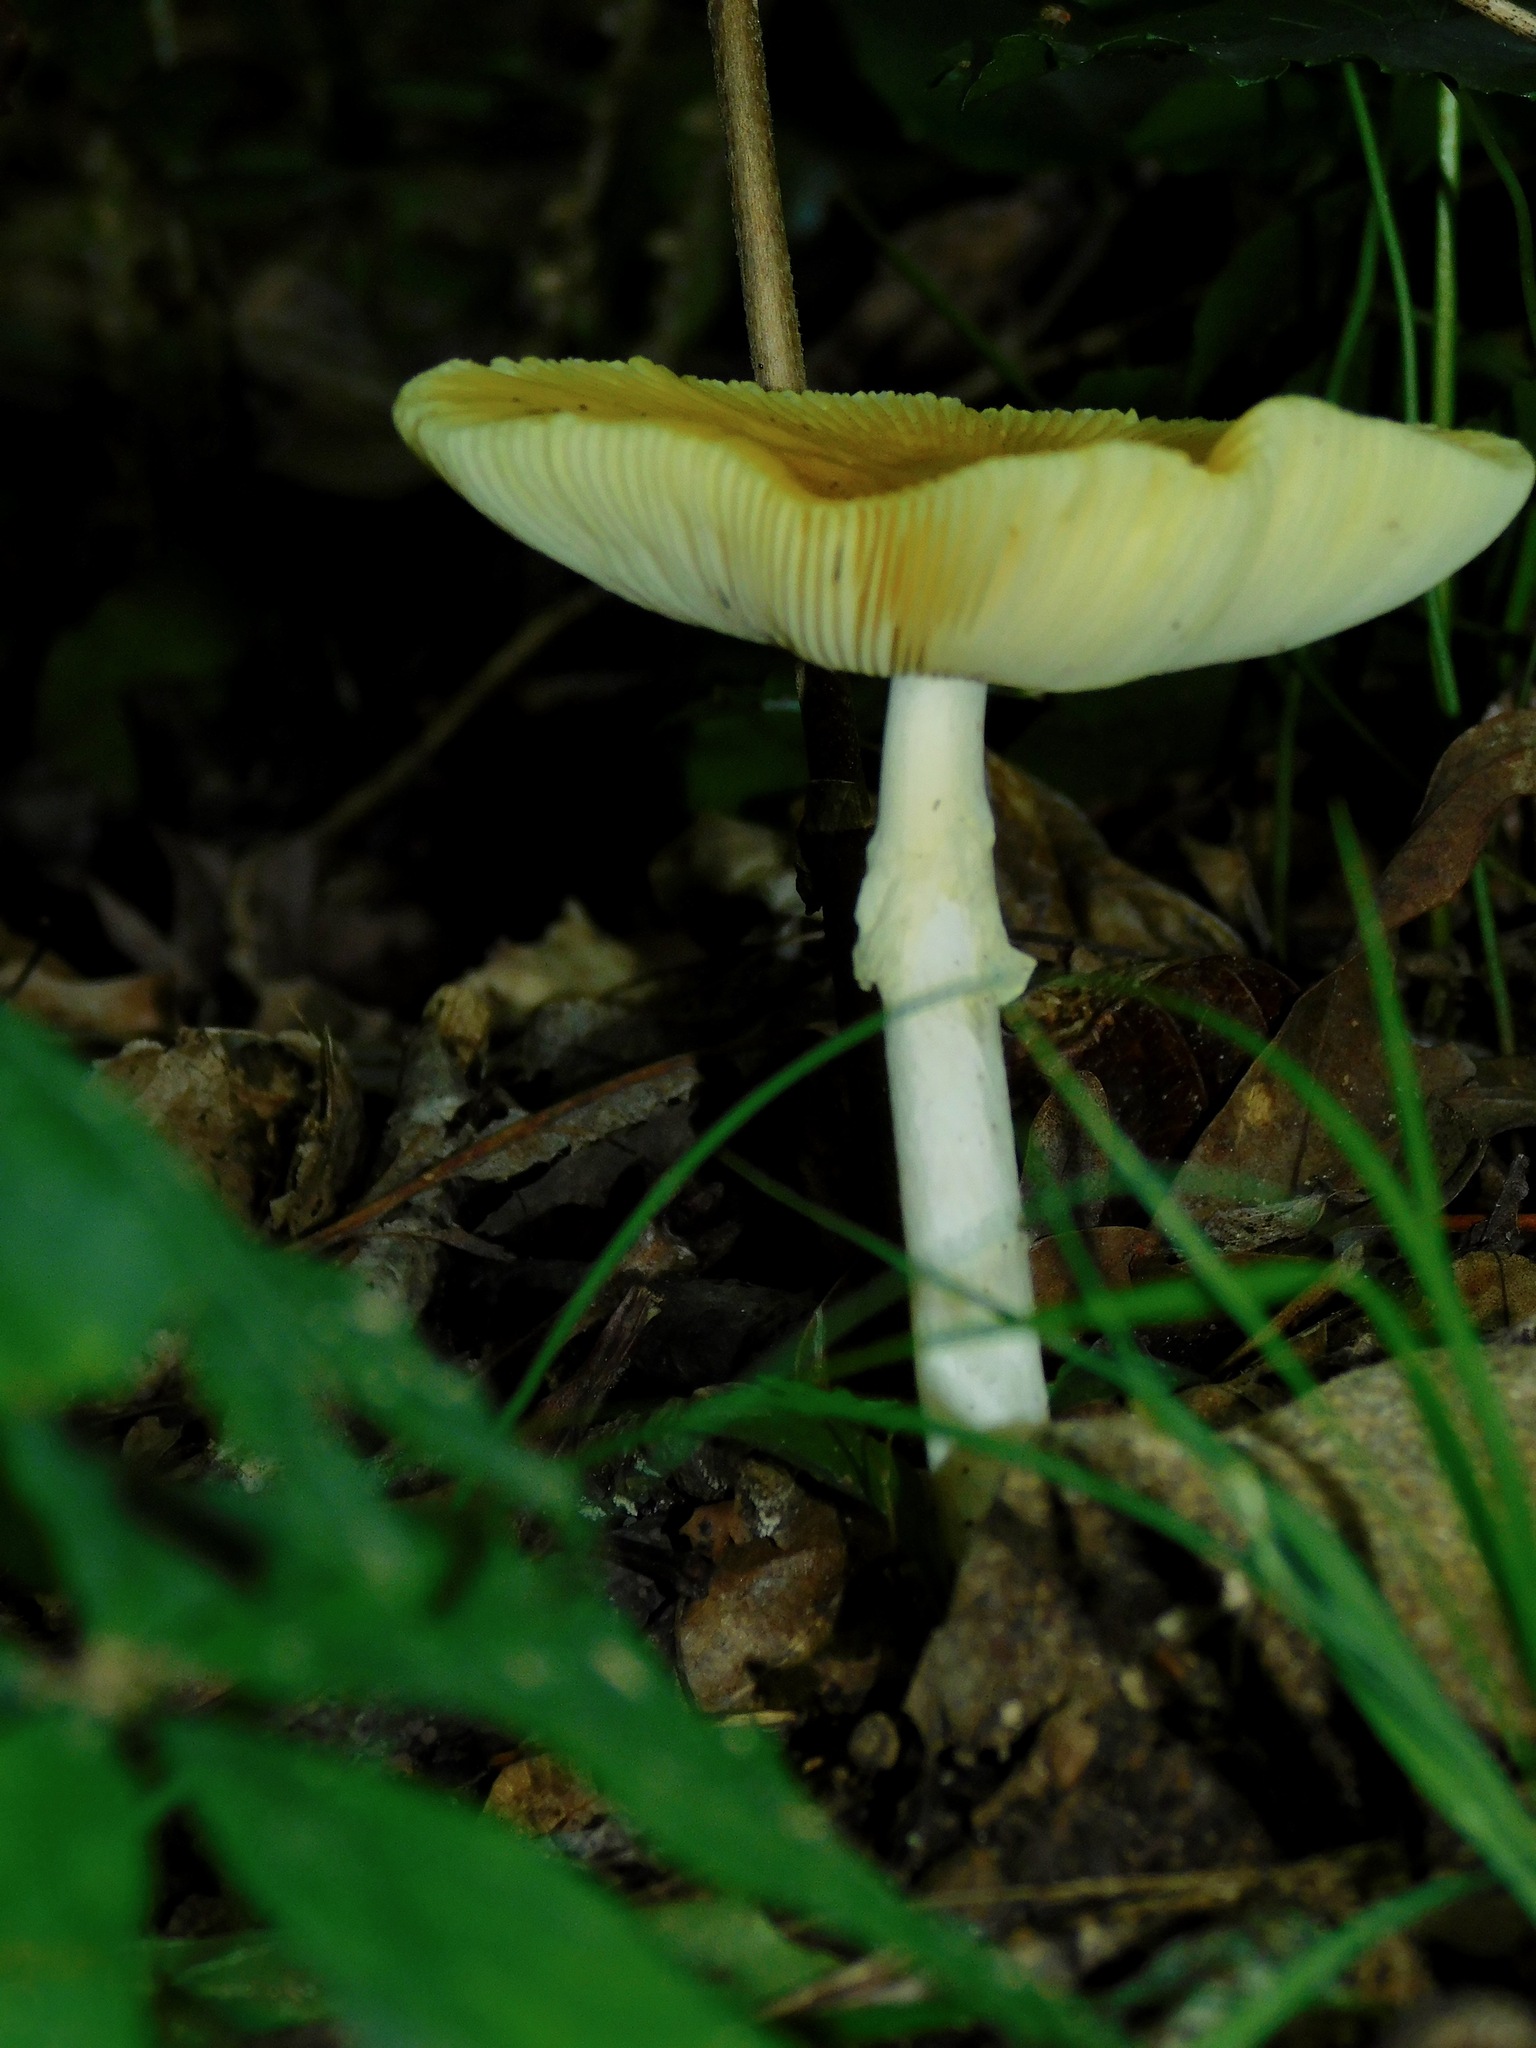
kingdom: Fungi
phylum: Basidiomycota
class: Agaricomycetes
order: Agaricales
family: Amanitaceae
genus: Amanita
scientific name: Amanita elongata
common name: Peck's yellow dust amanita
